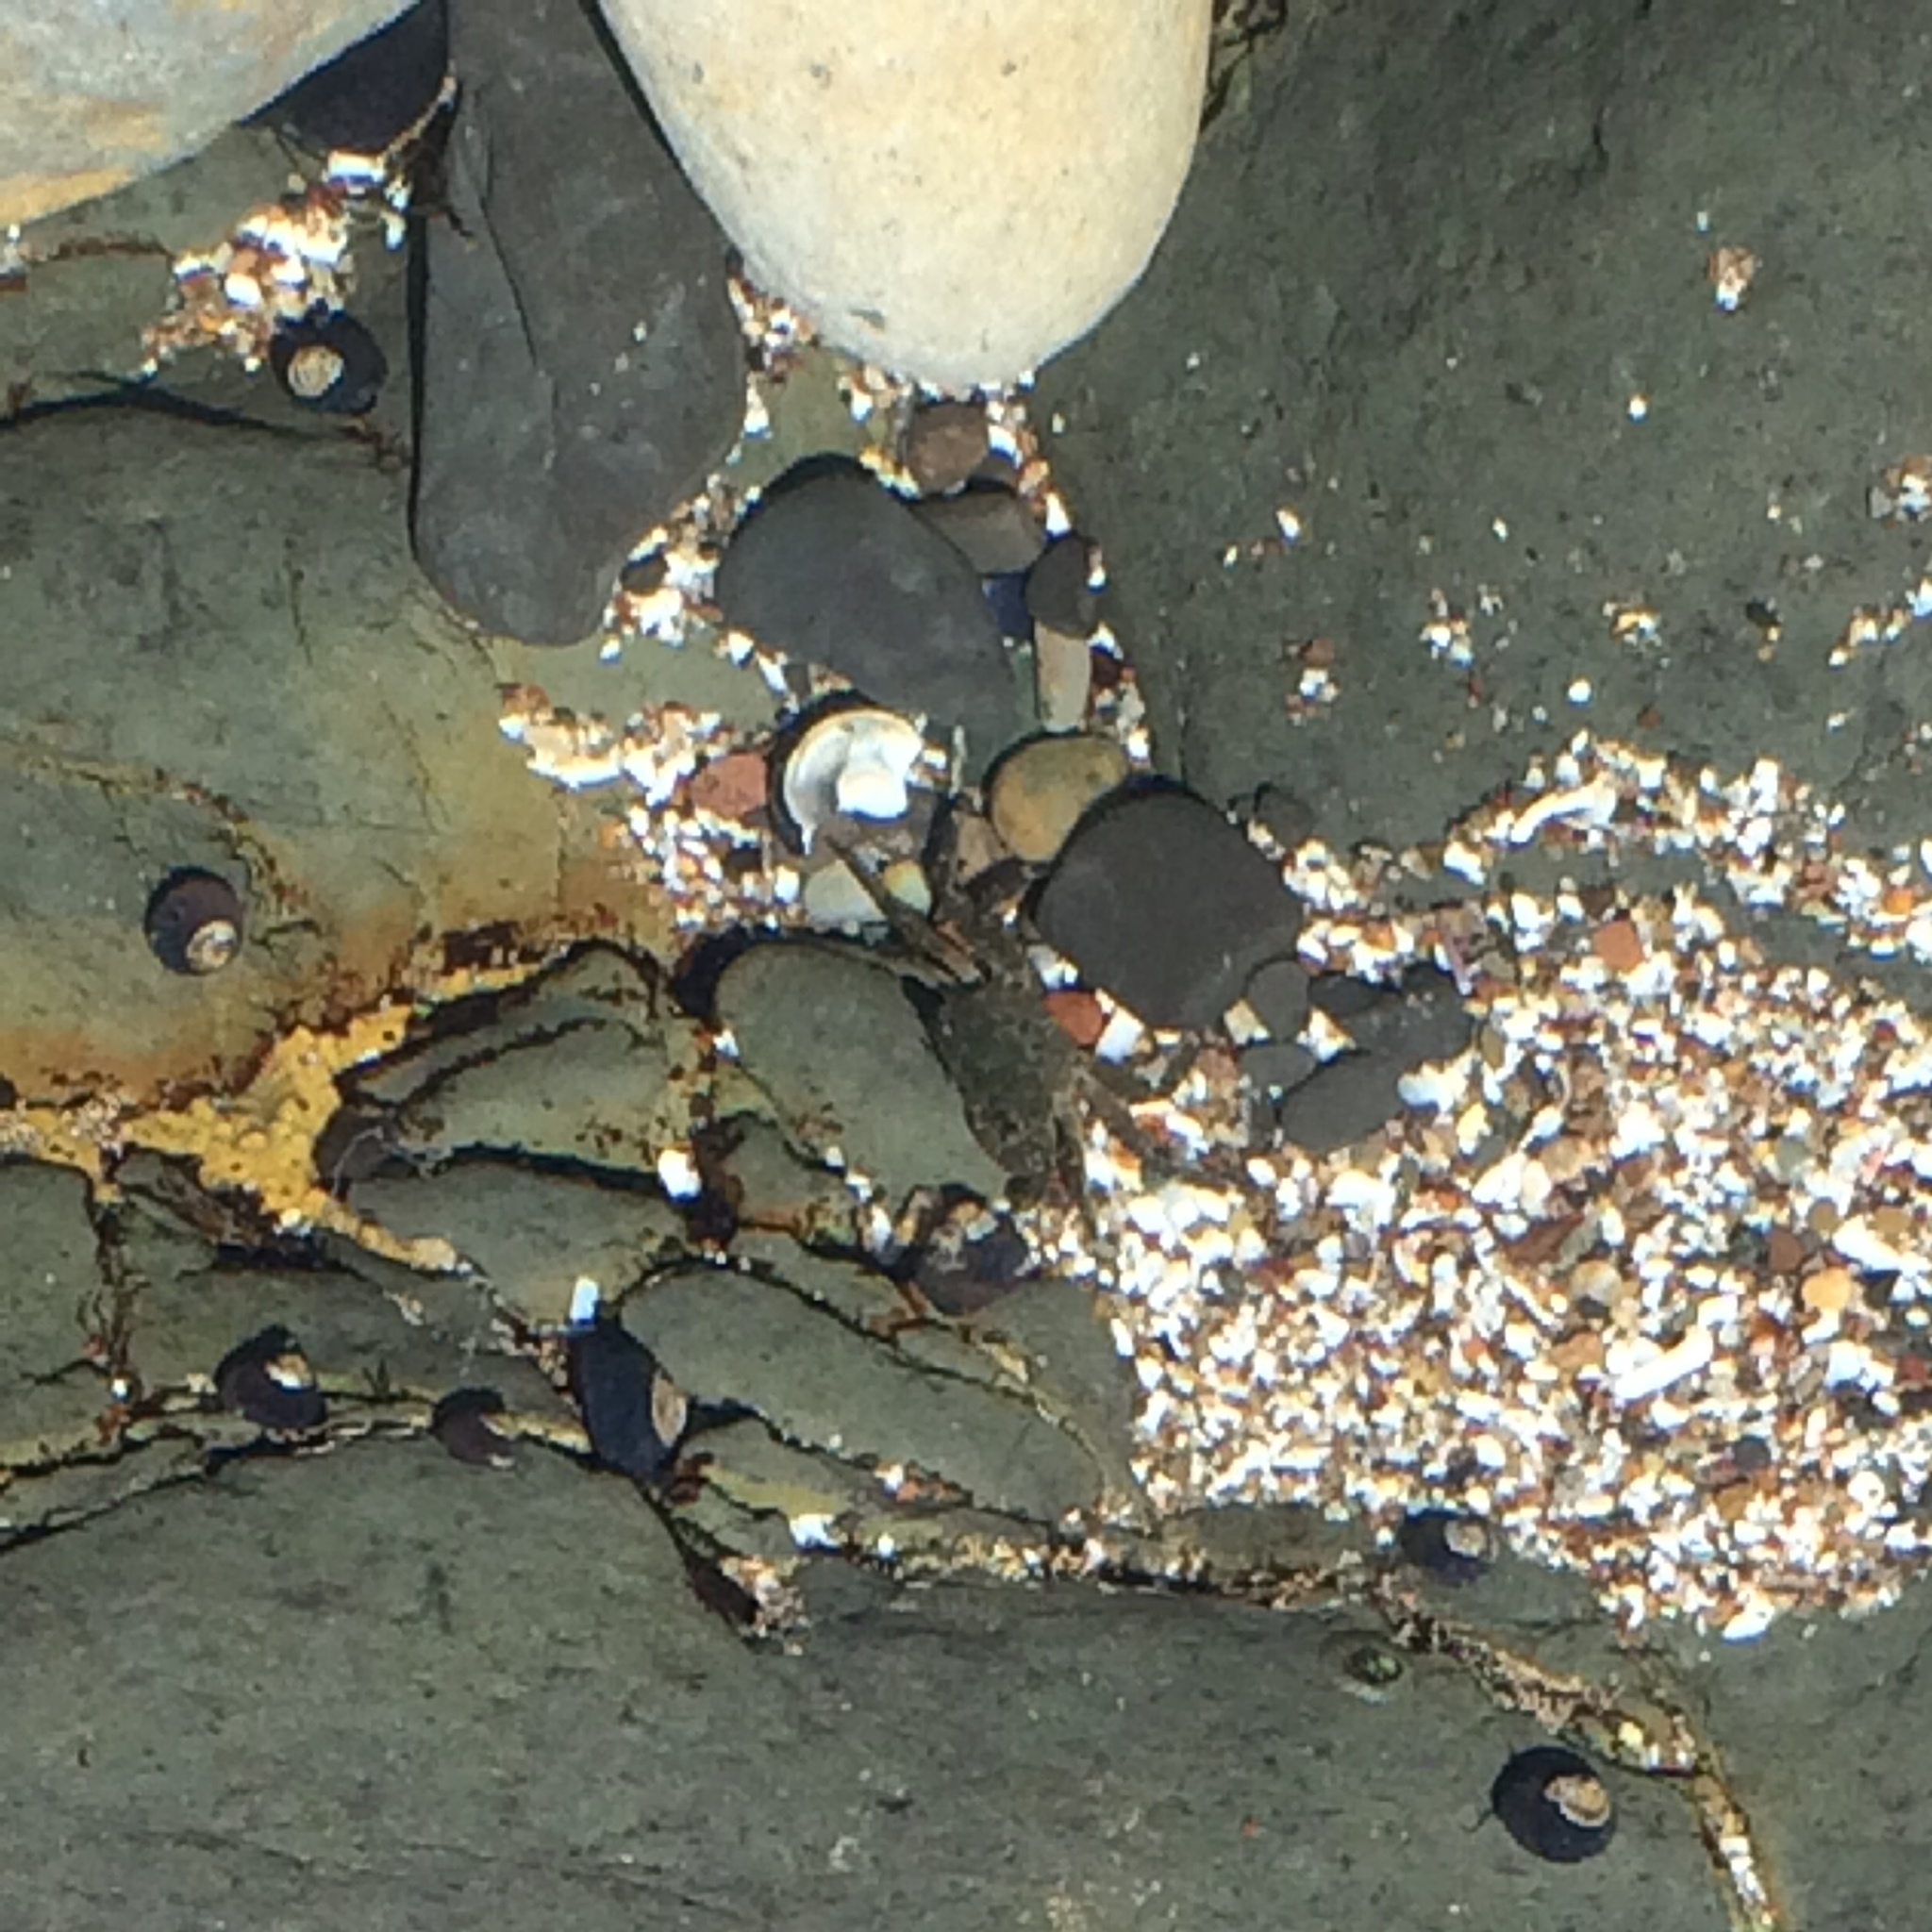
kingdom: Animalia
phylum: Arthropoda
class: Malacostraca
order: Decapoda
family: Grapsidae
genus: Pachygrapsus
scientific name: Pachygrapsus crassipes
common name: Striped shore crab
